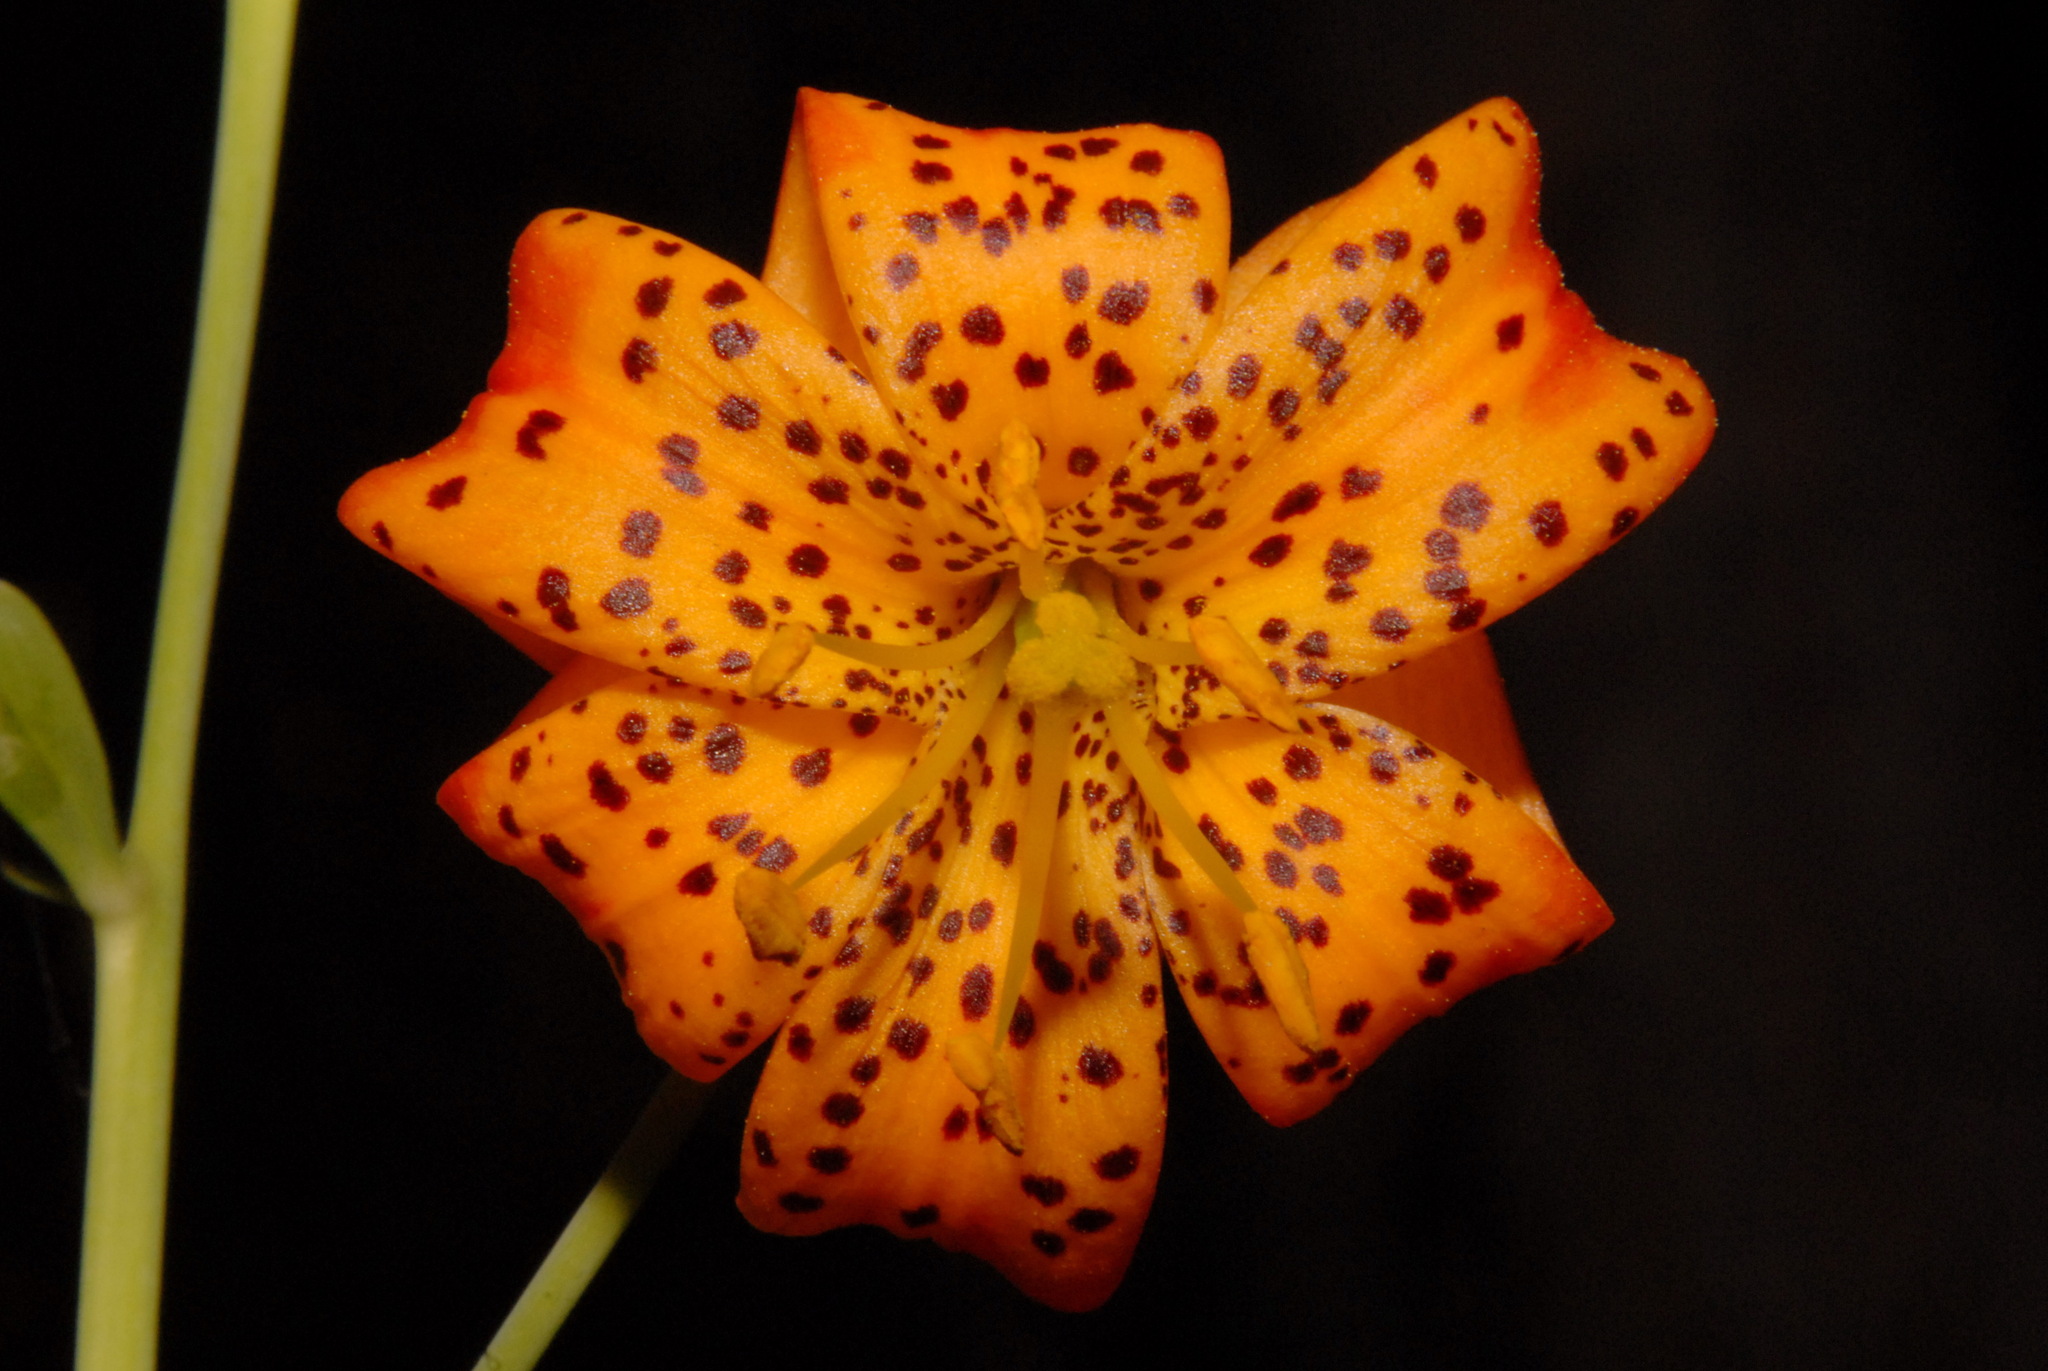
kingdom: Plantae
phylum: Tracheophyta
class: Liliopsida
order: Liliales
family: Liliaceae
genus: Lilium
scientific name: Lilium pardalinum
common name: Panther lily
